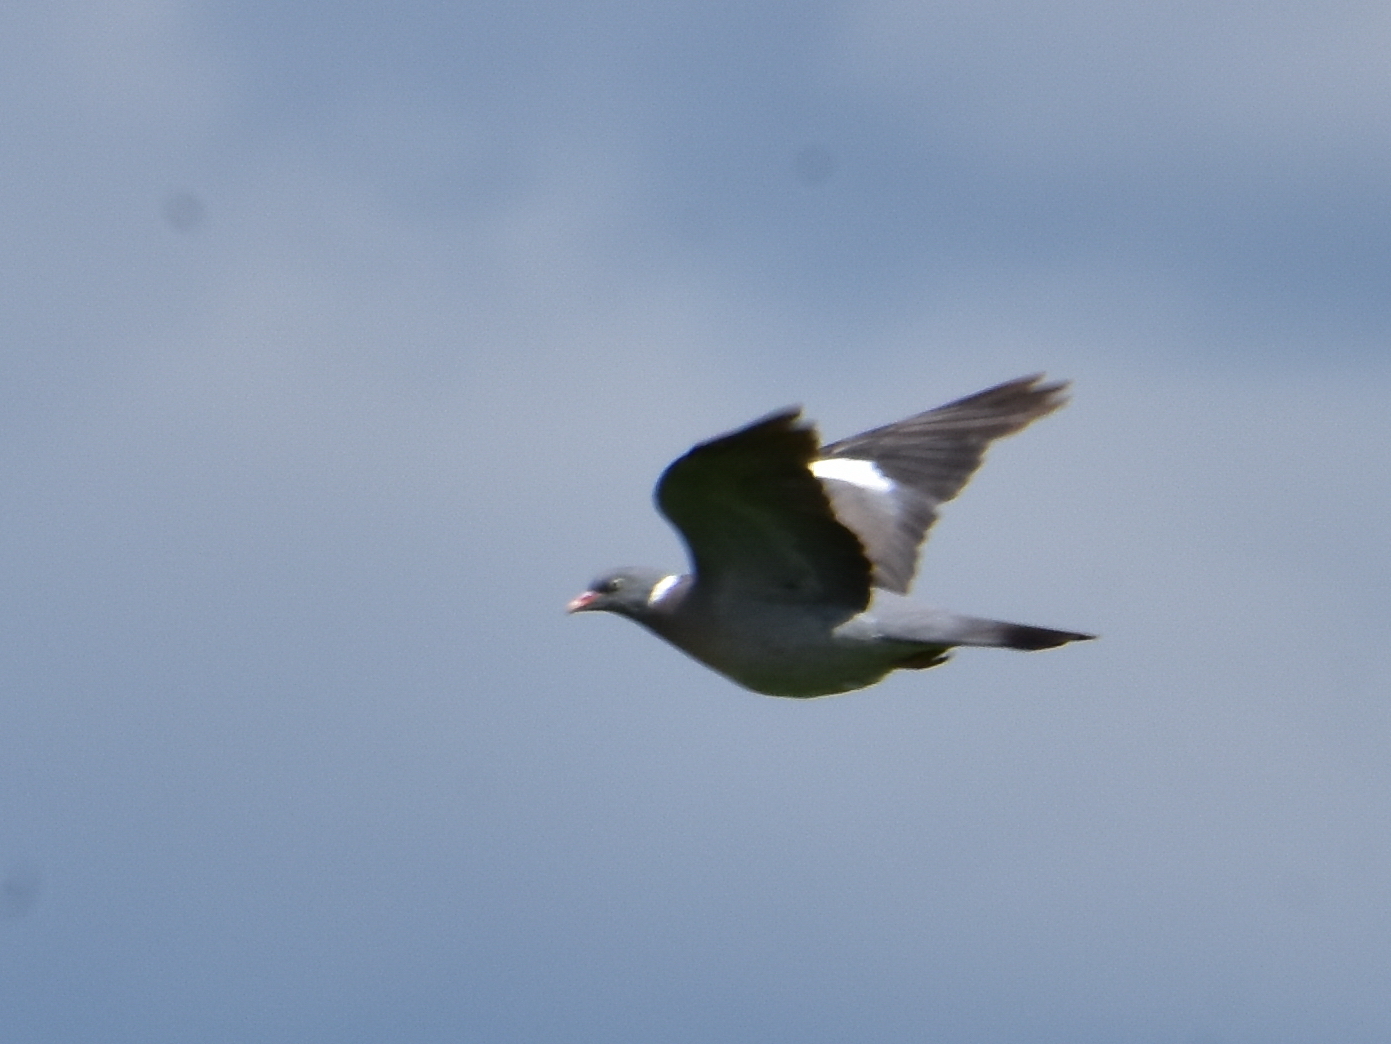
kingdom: Animalia
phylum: Chordata
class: Aves
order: Columbiformes
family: Columbidae
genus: Columba
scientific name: Columba palumbus
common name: Common wood pigeon
